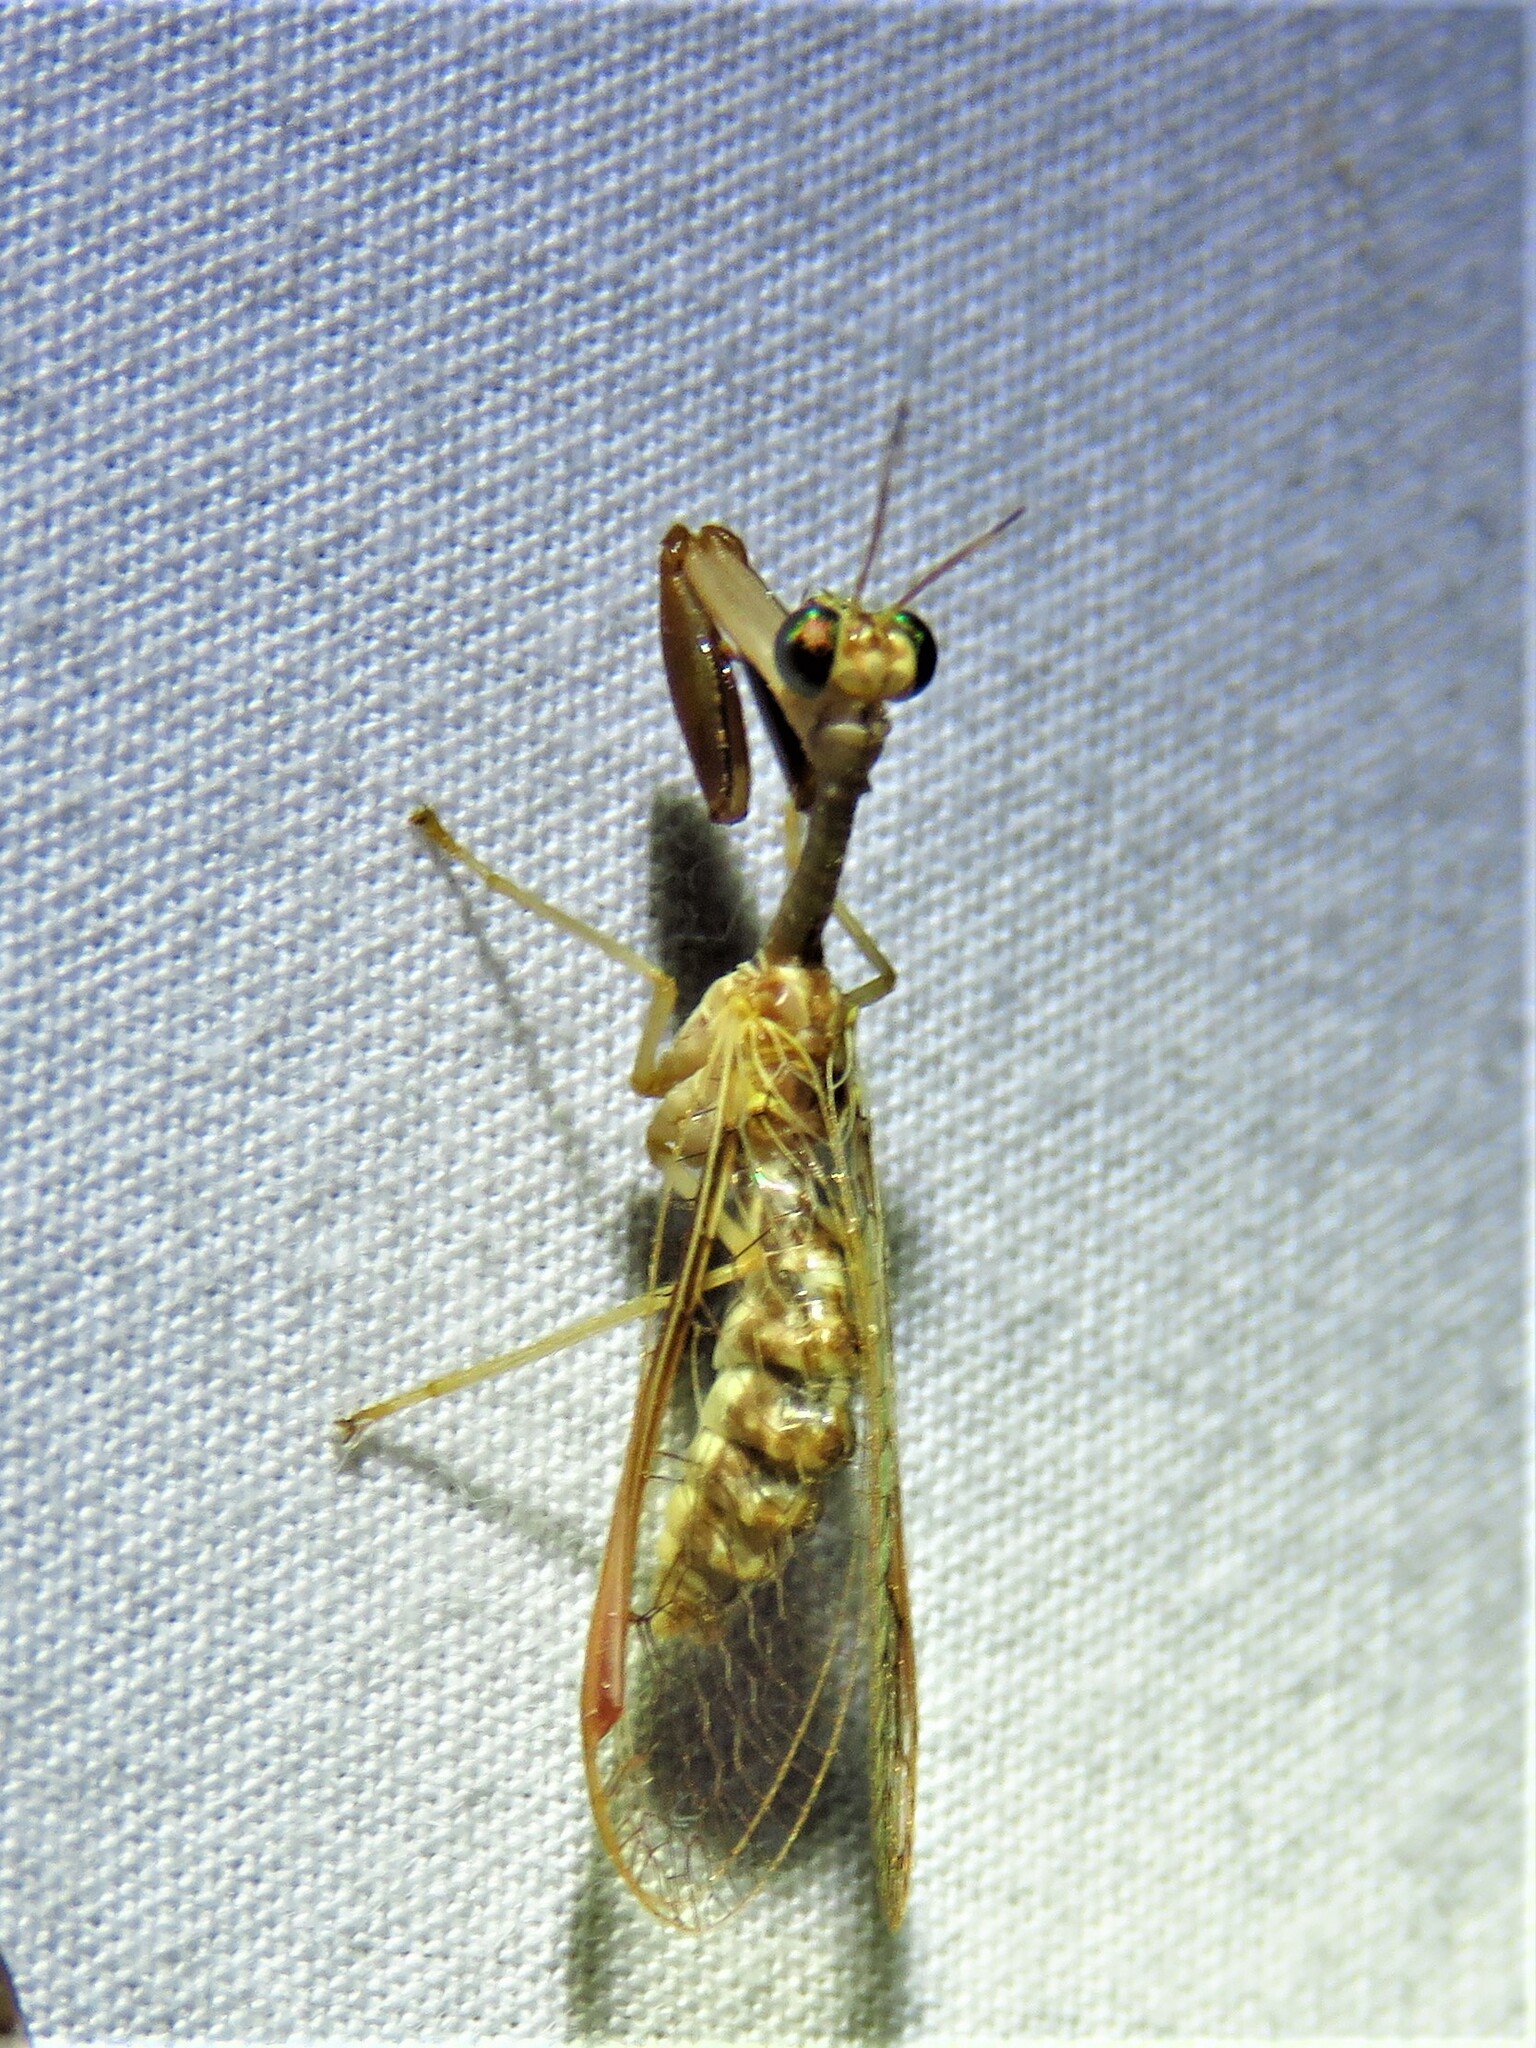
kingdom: Animalia
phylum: Arthropoda
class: Insecta
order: Neuroptera
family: Mantispidae
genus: Dicromantispa
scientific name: Dicromantispa sayi
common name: Say's mantidfly
